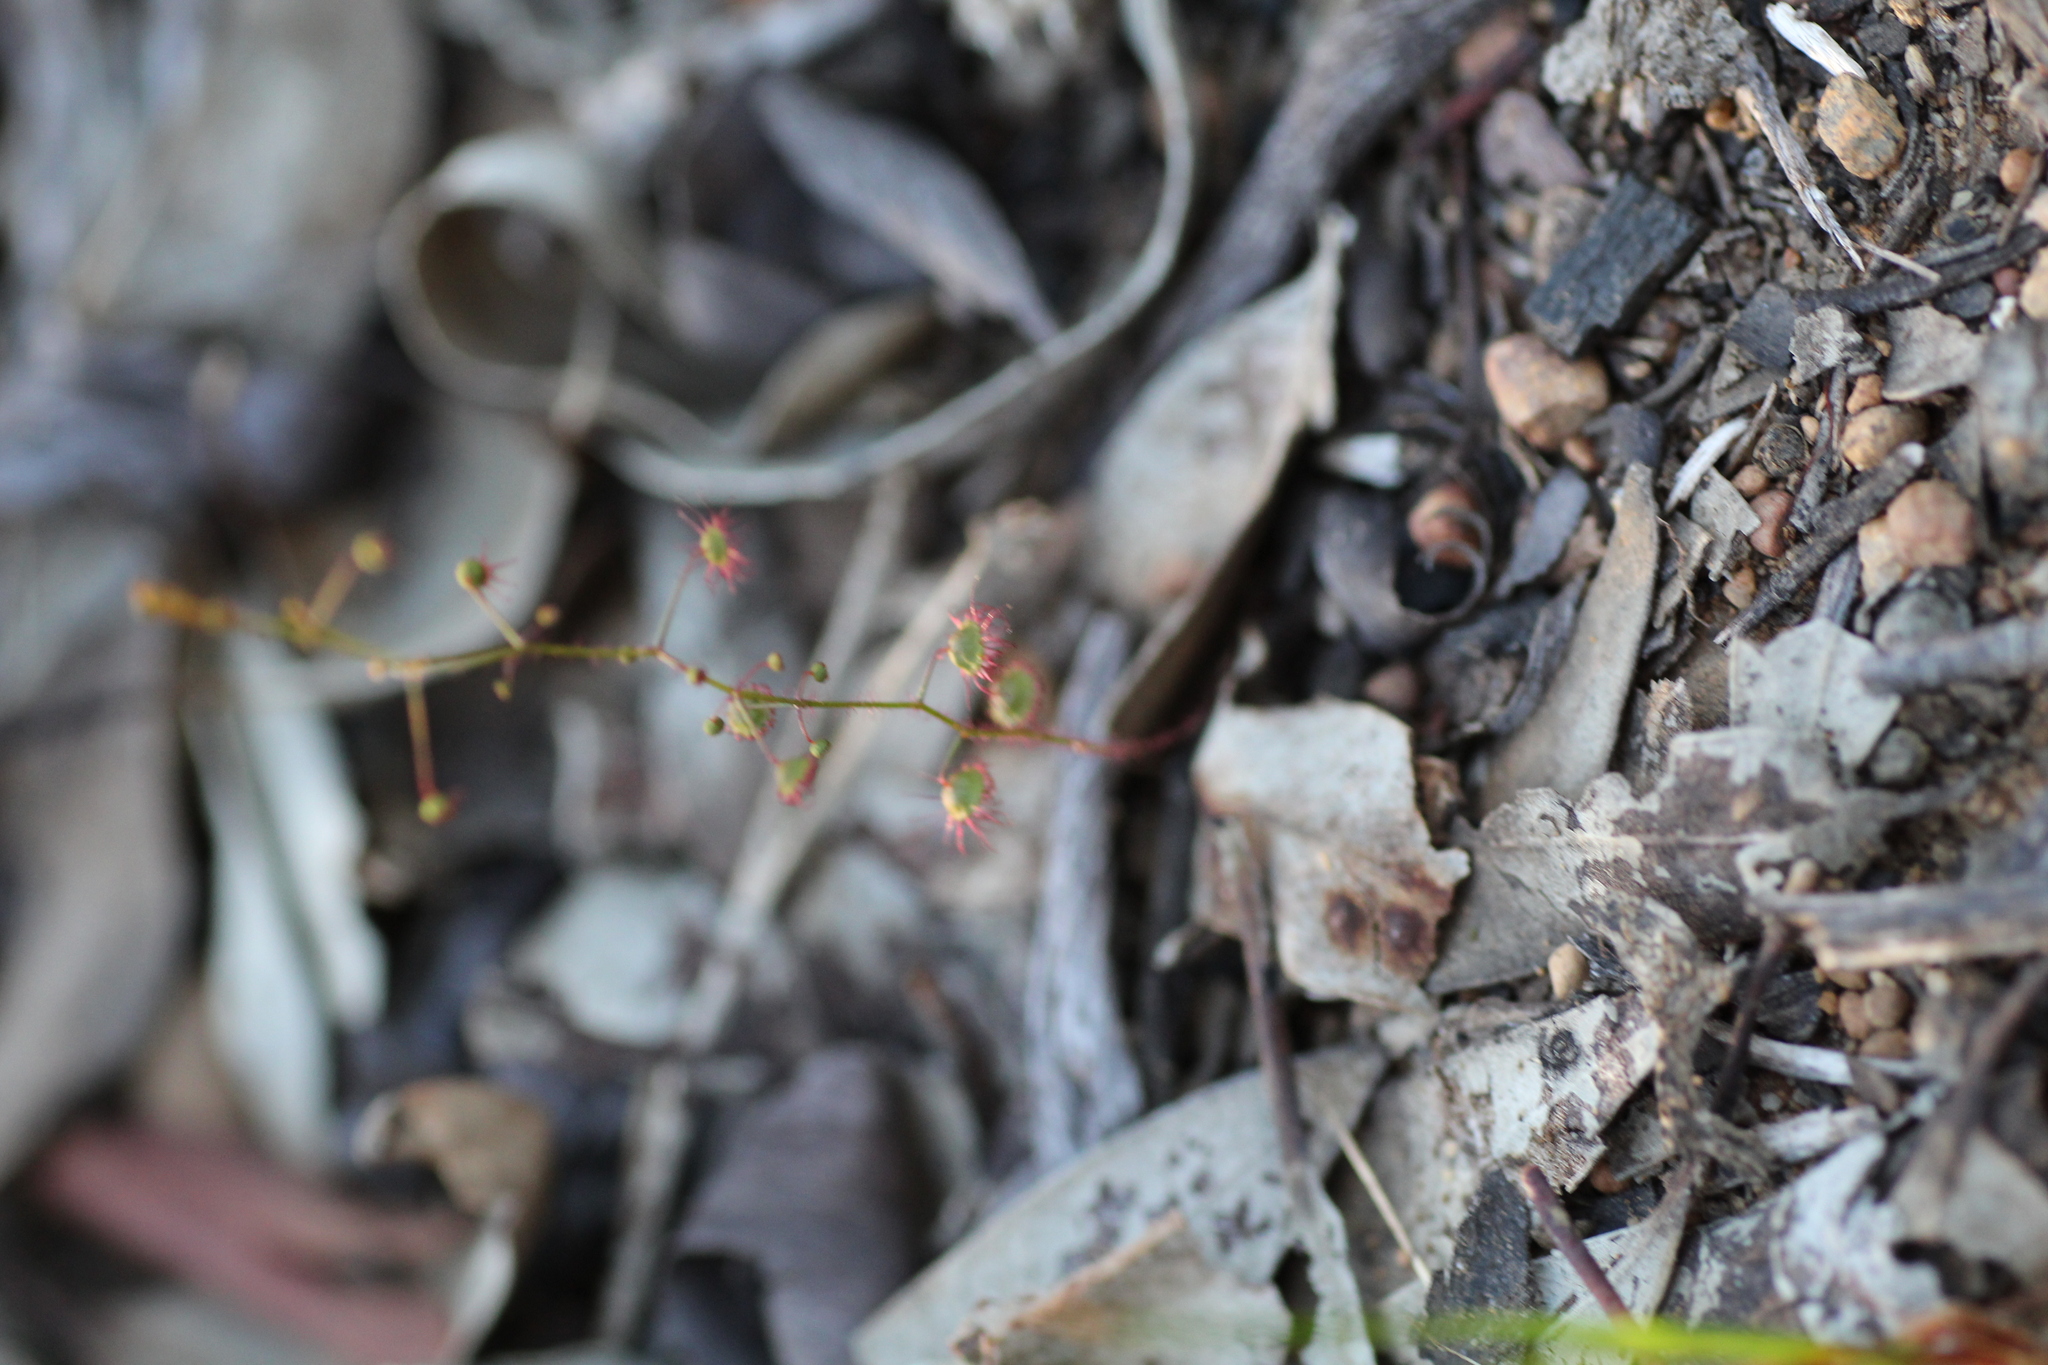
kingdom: Plantae
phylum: Tracheophyta
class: Magnoliopsida
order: Caryophyllales
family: Droseraceae
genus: Drosera
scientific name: Drosera macrantha
